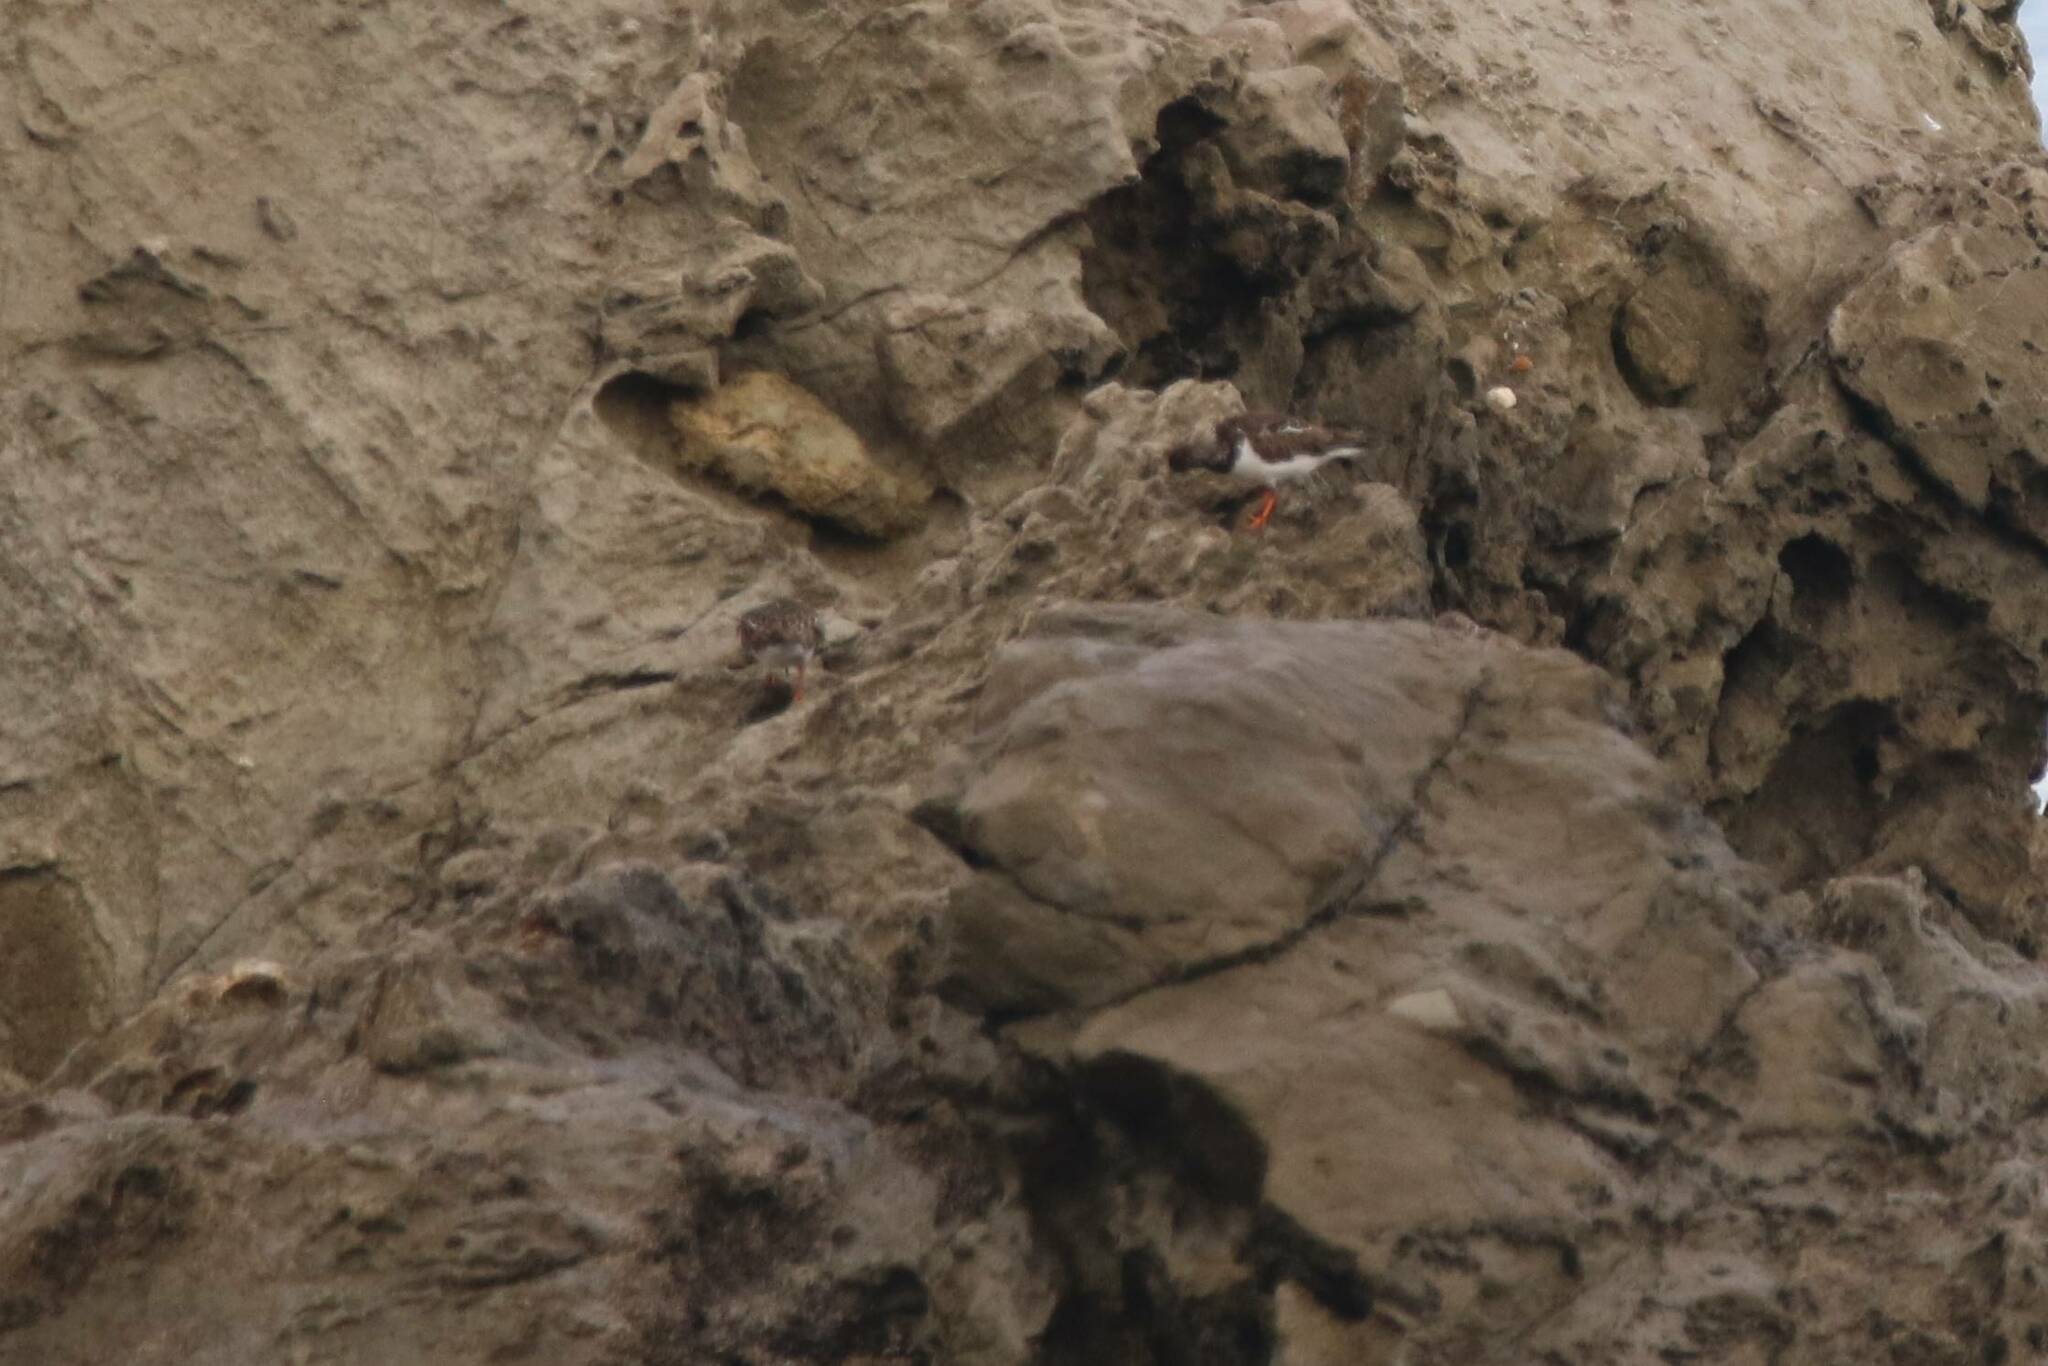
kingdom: Animalia
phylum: Chordata
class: Aves
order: Charadriiformes
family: Scolopacidae
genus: Arenaria
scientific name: Arenaria interpres
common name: Ruddy turnstone
